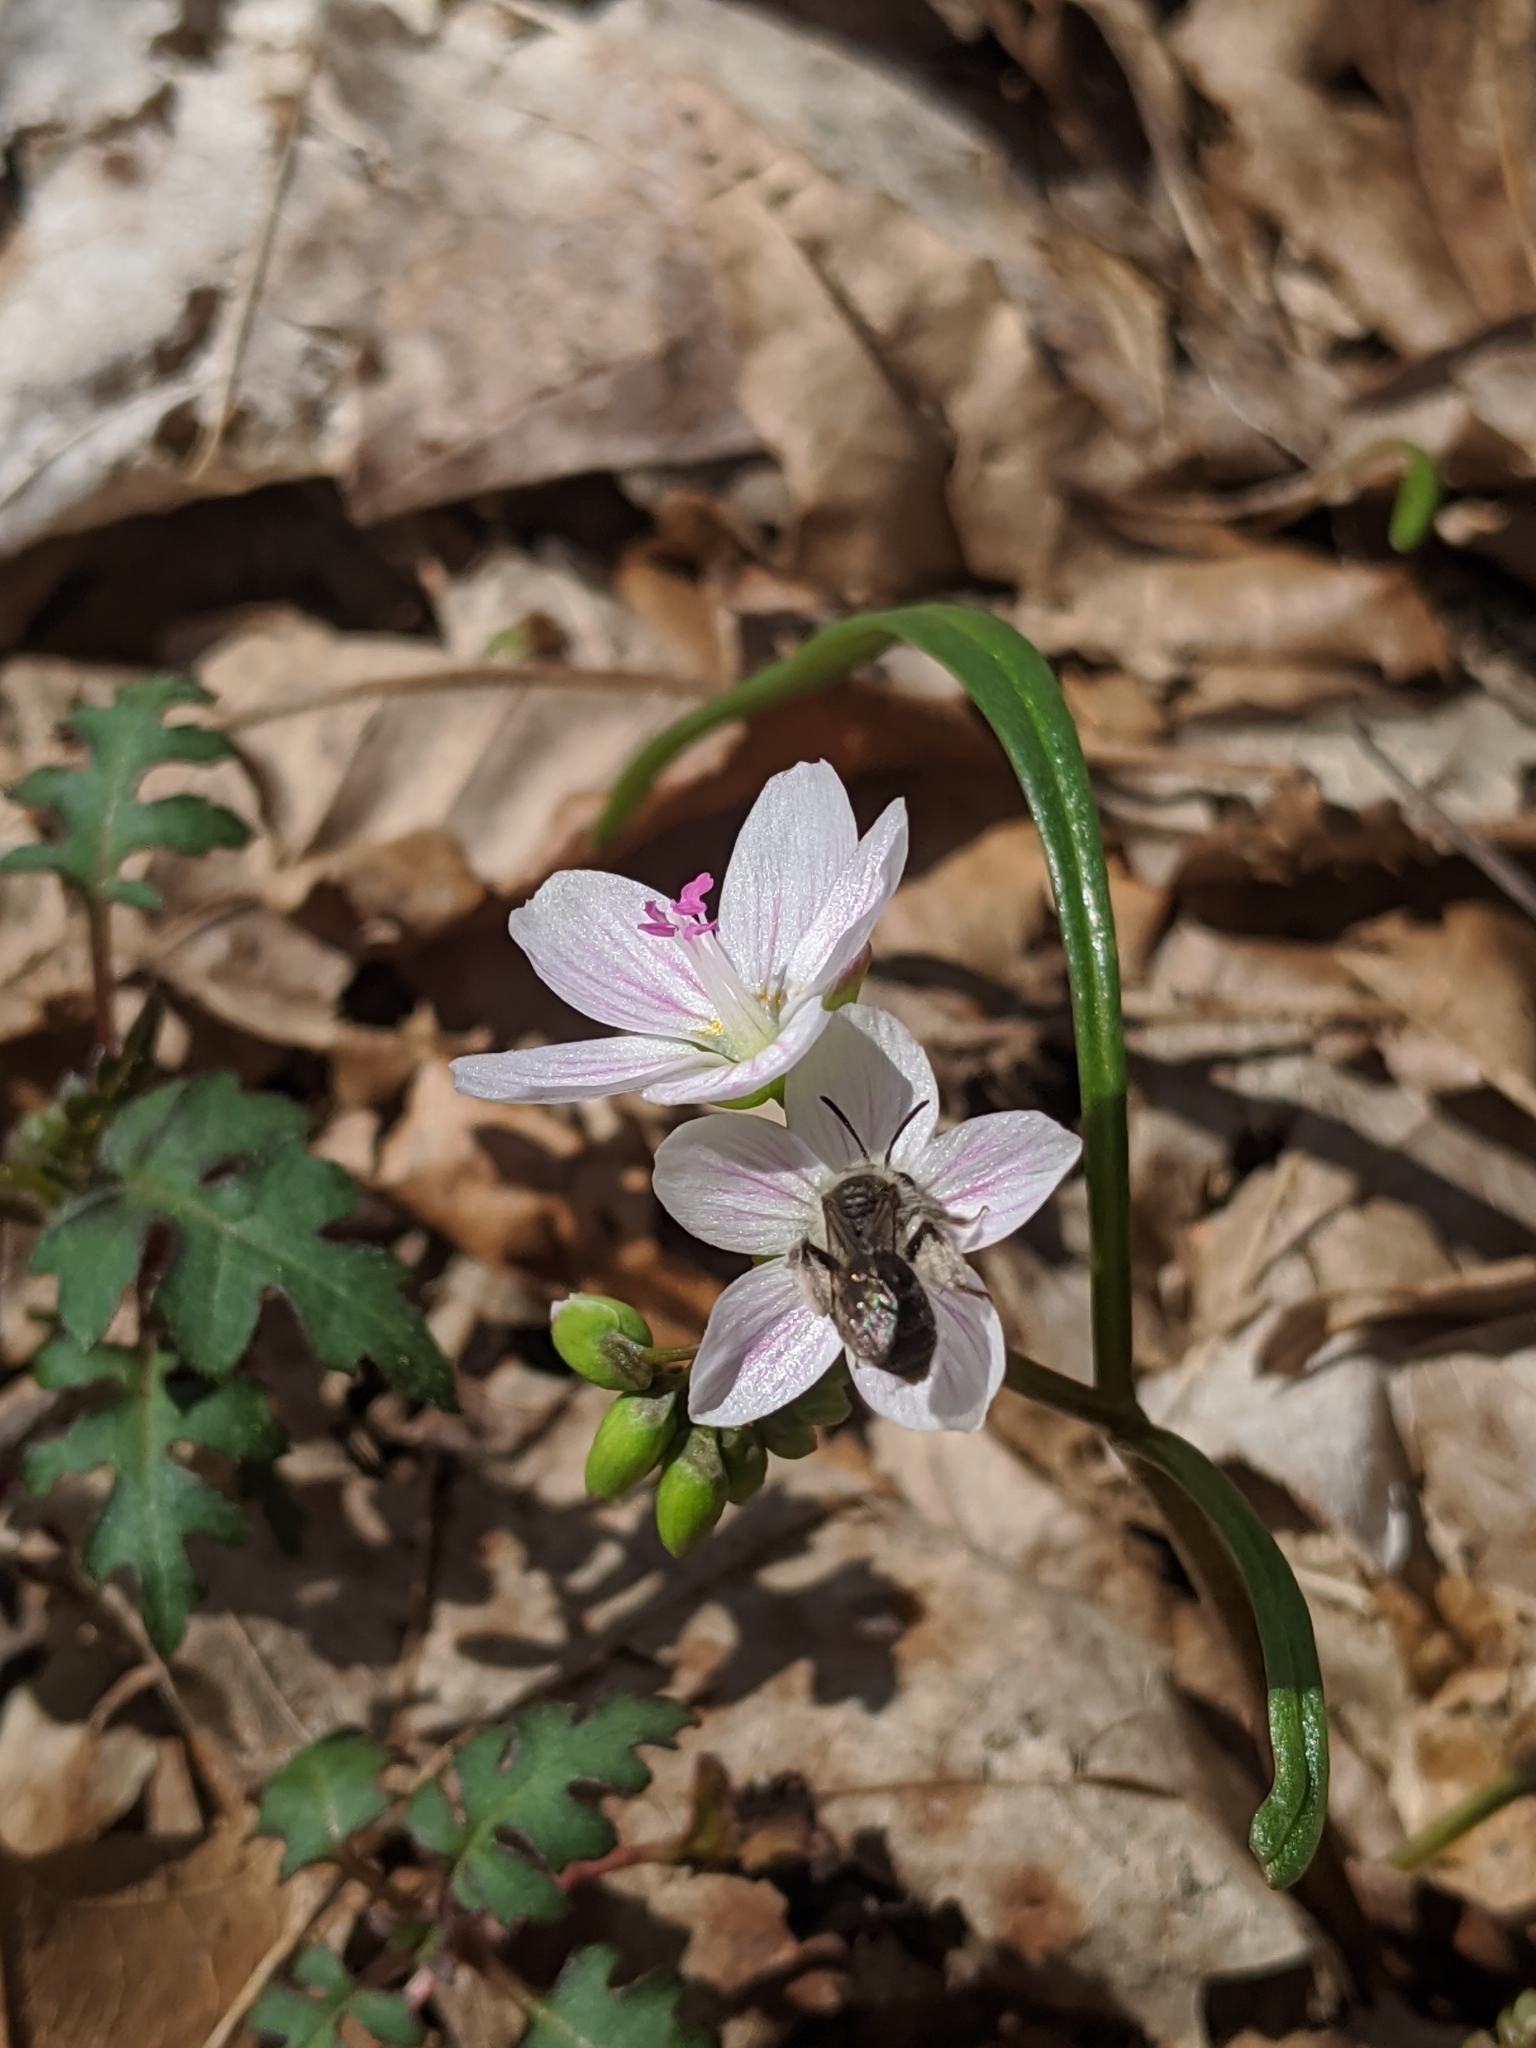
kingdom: Animalia
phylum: Arthropoda
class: Insecta
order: Hymenoptera
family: Andrenidae
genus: Andrena
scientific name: Andrena erigeniae
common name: Spring beauty miner
